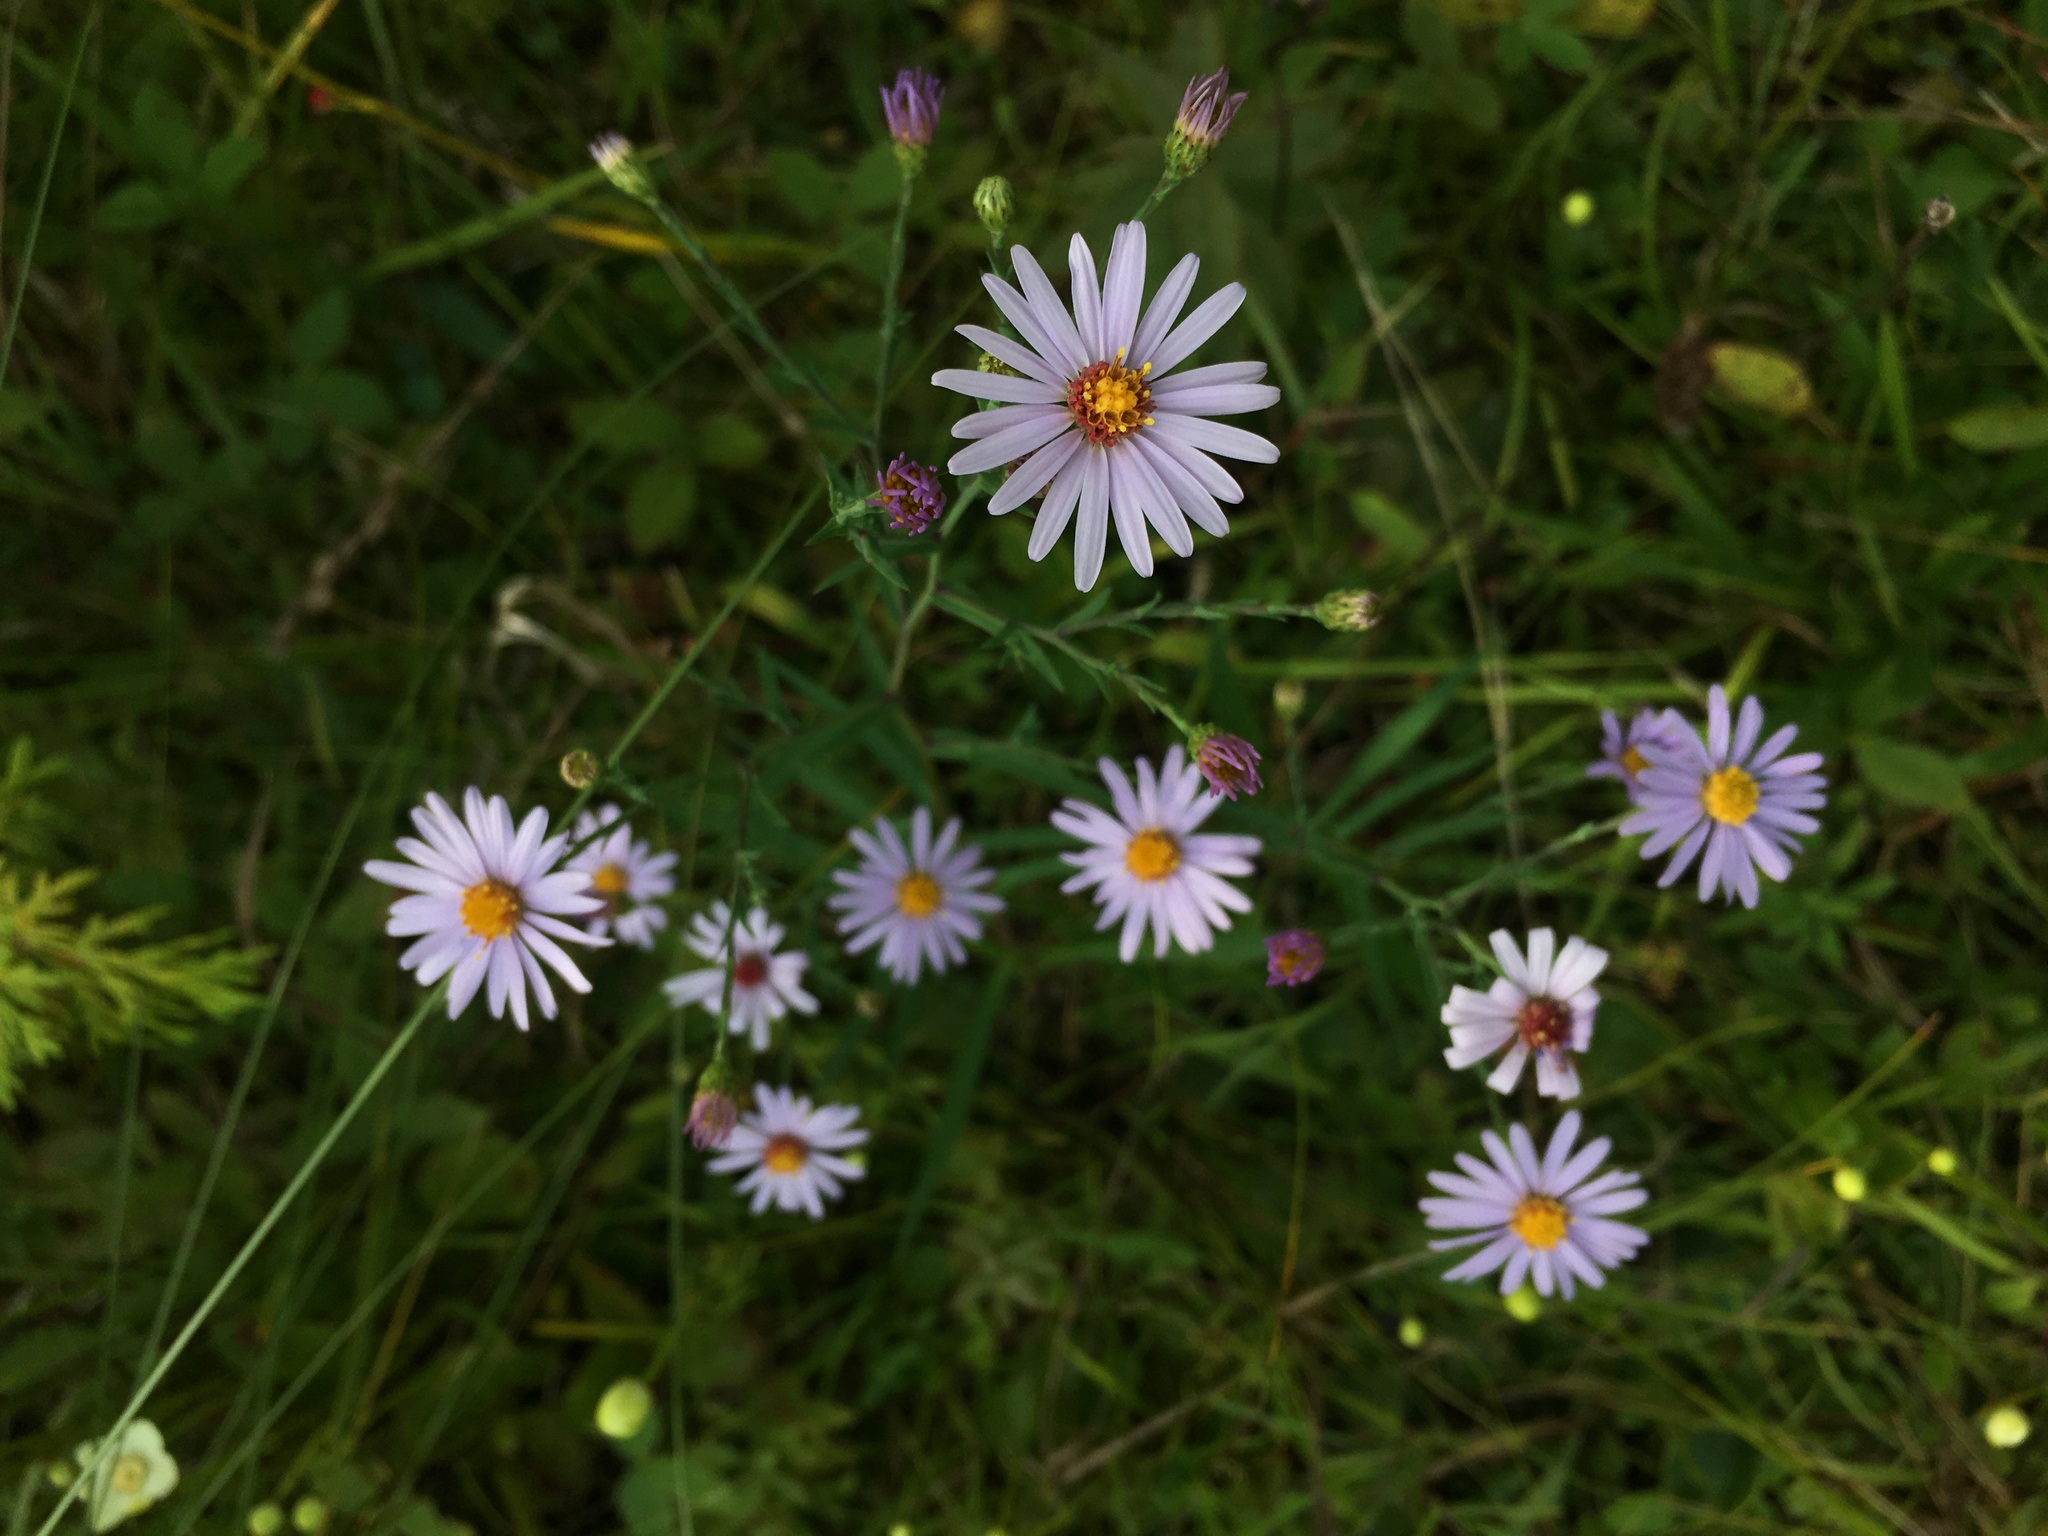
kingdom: Plantae
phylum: Tracheophyta
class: Magnoliopsida
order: Asterales
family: Asteraceae
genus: Symphyotrichum
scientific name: Symphyotrichum laeve
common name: Glaucous aster
